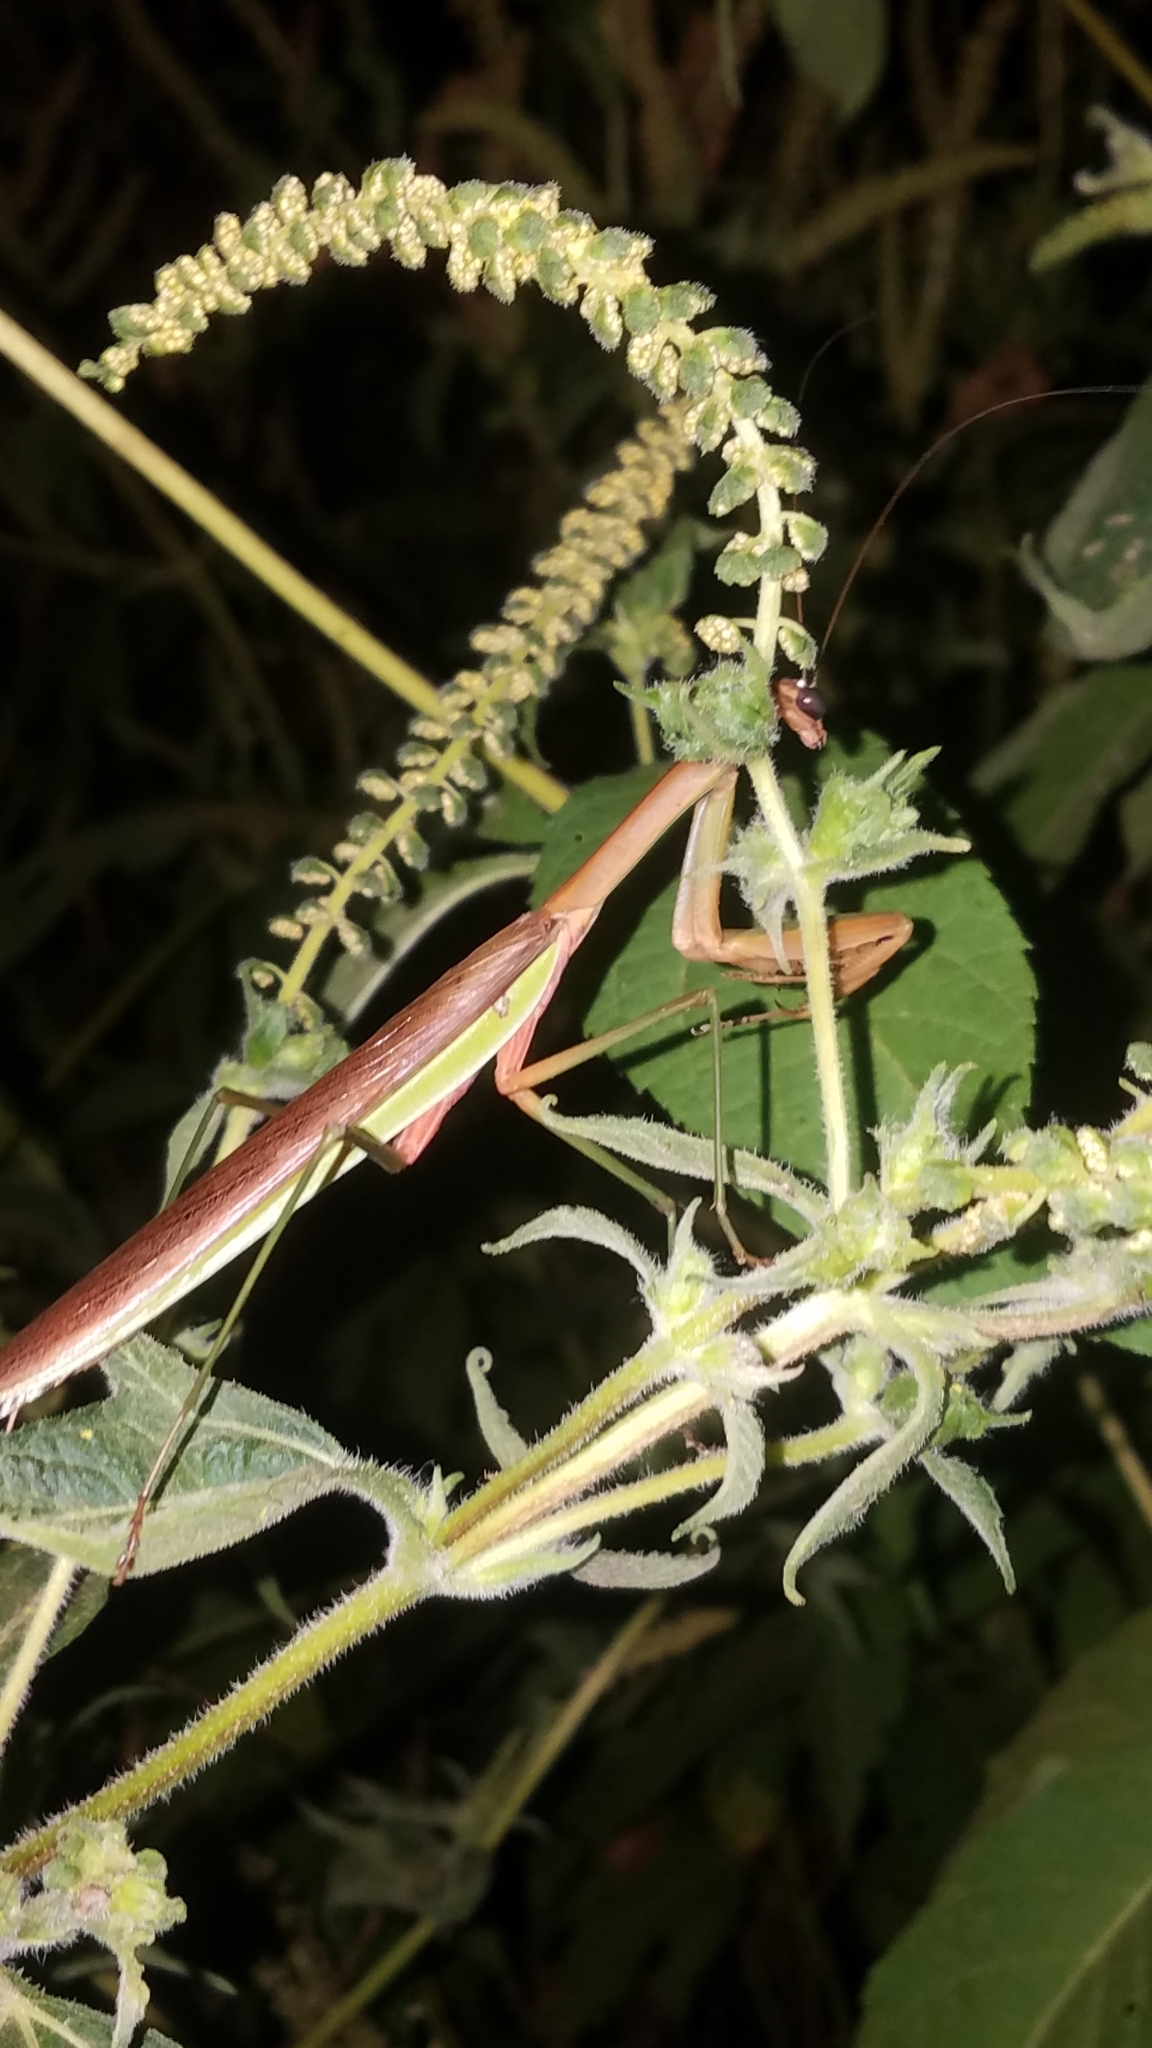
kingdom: Animalia
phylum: Arthropoda
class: Insecta
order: Mantodea
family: Mantidae
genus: Tenodera
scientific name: Tenodera sinensis
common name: Chinese mantis
